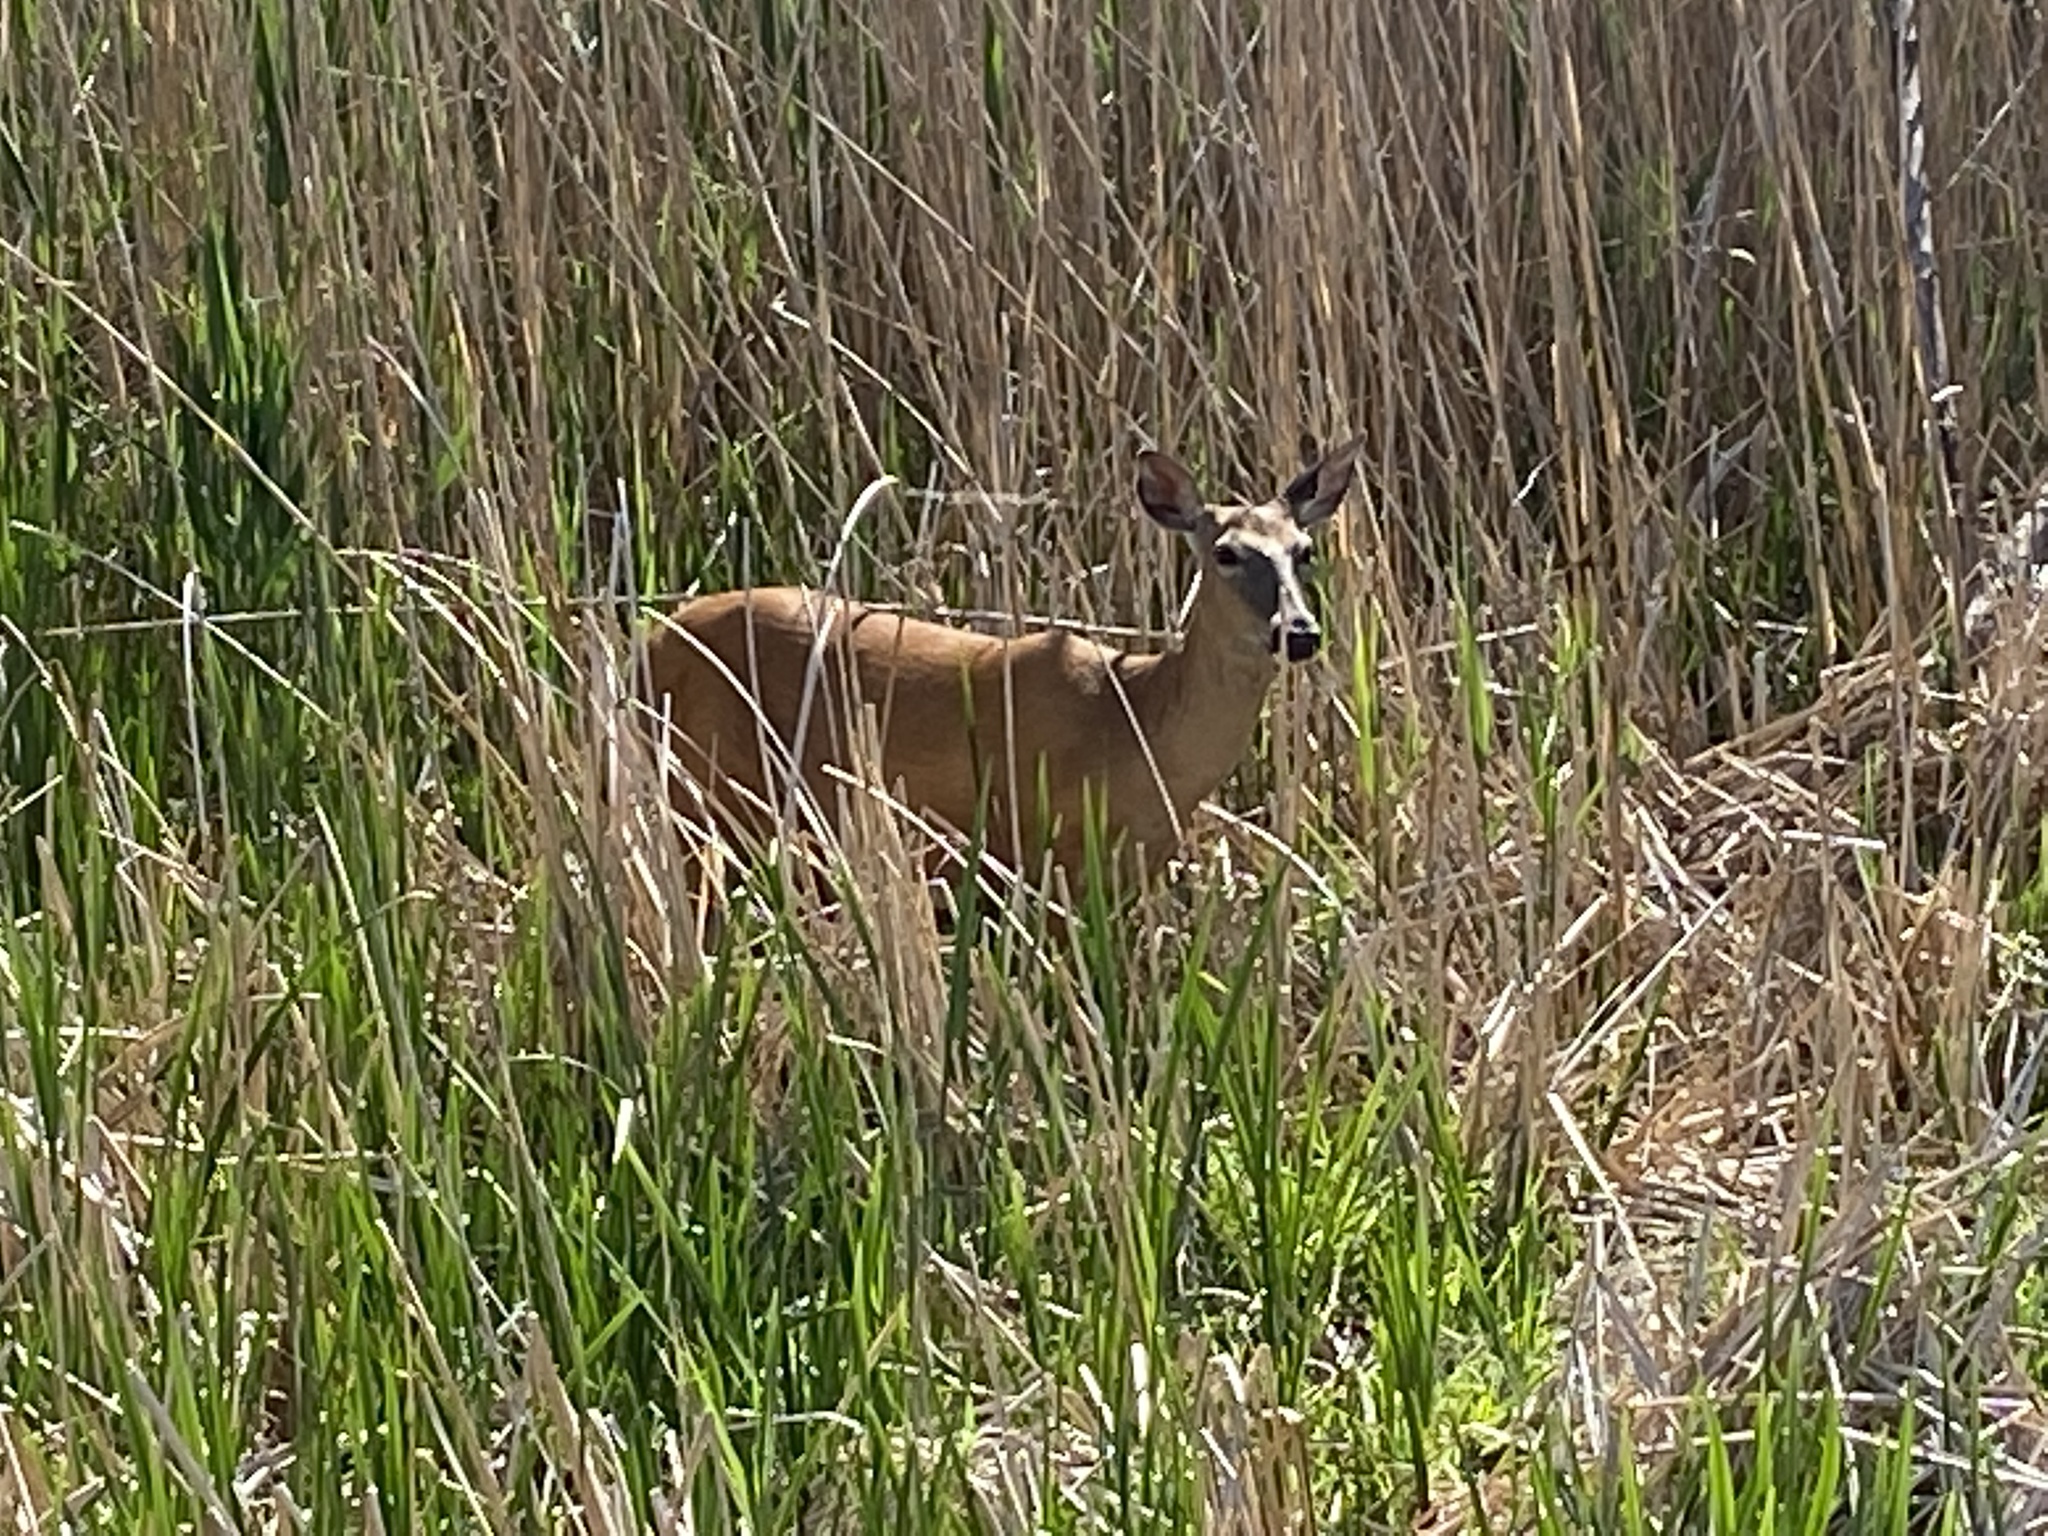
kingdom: Animalia
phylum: Chordata
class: Mammalia
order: Artiodactyla
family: Cervidae
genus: Odocoileus
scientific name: Odocoileus virginianus
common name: White-tailed deer
